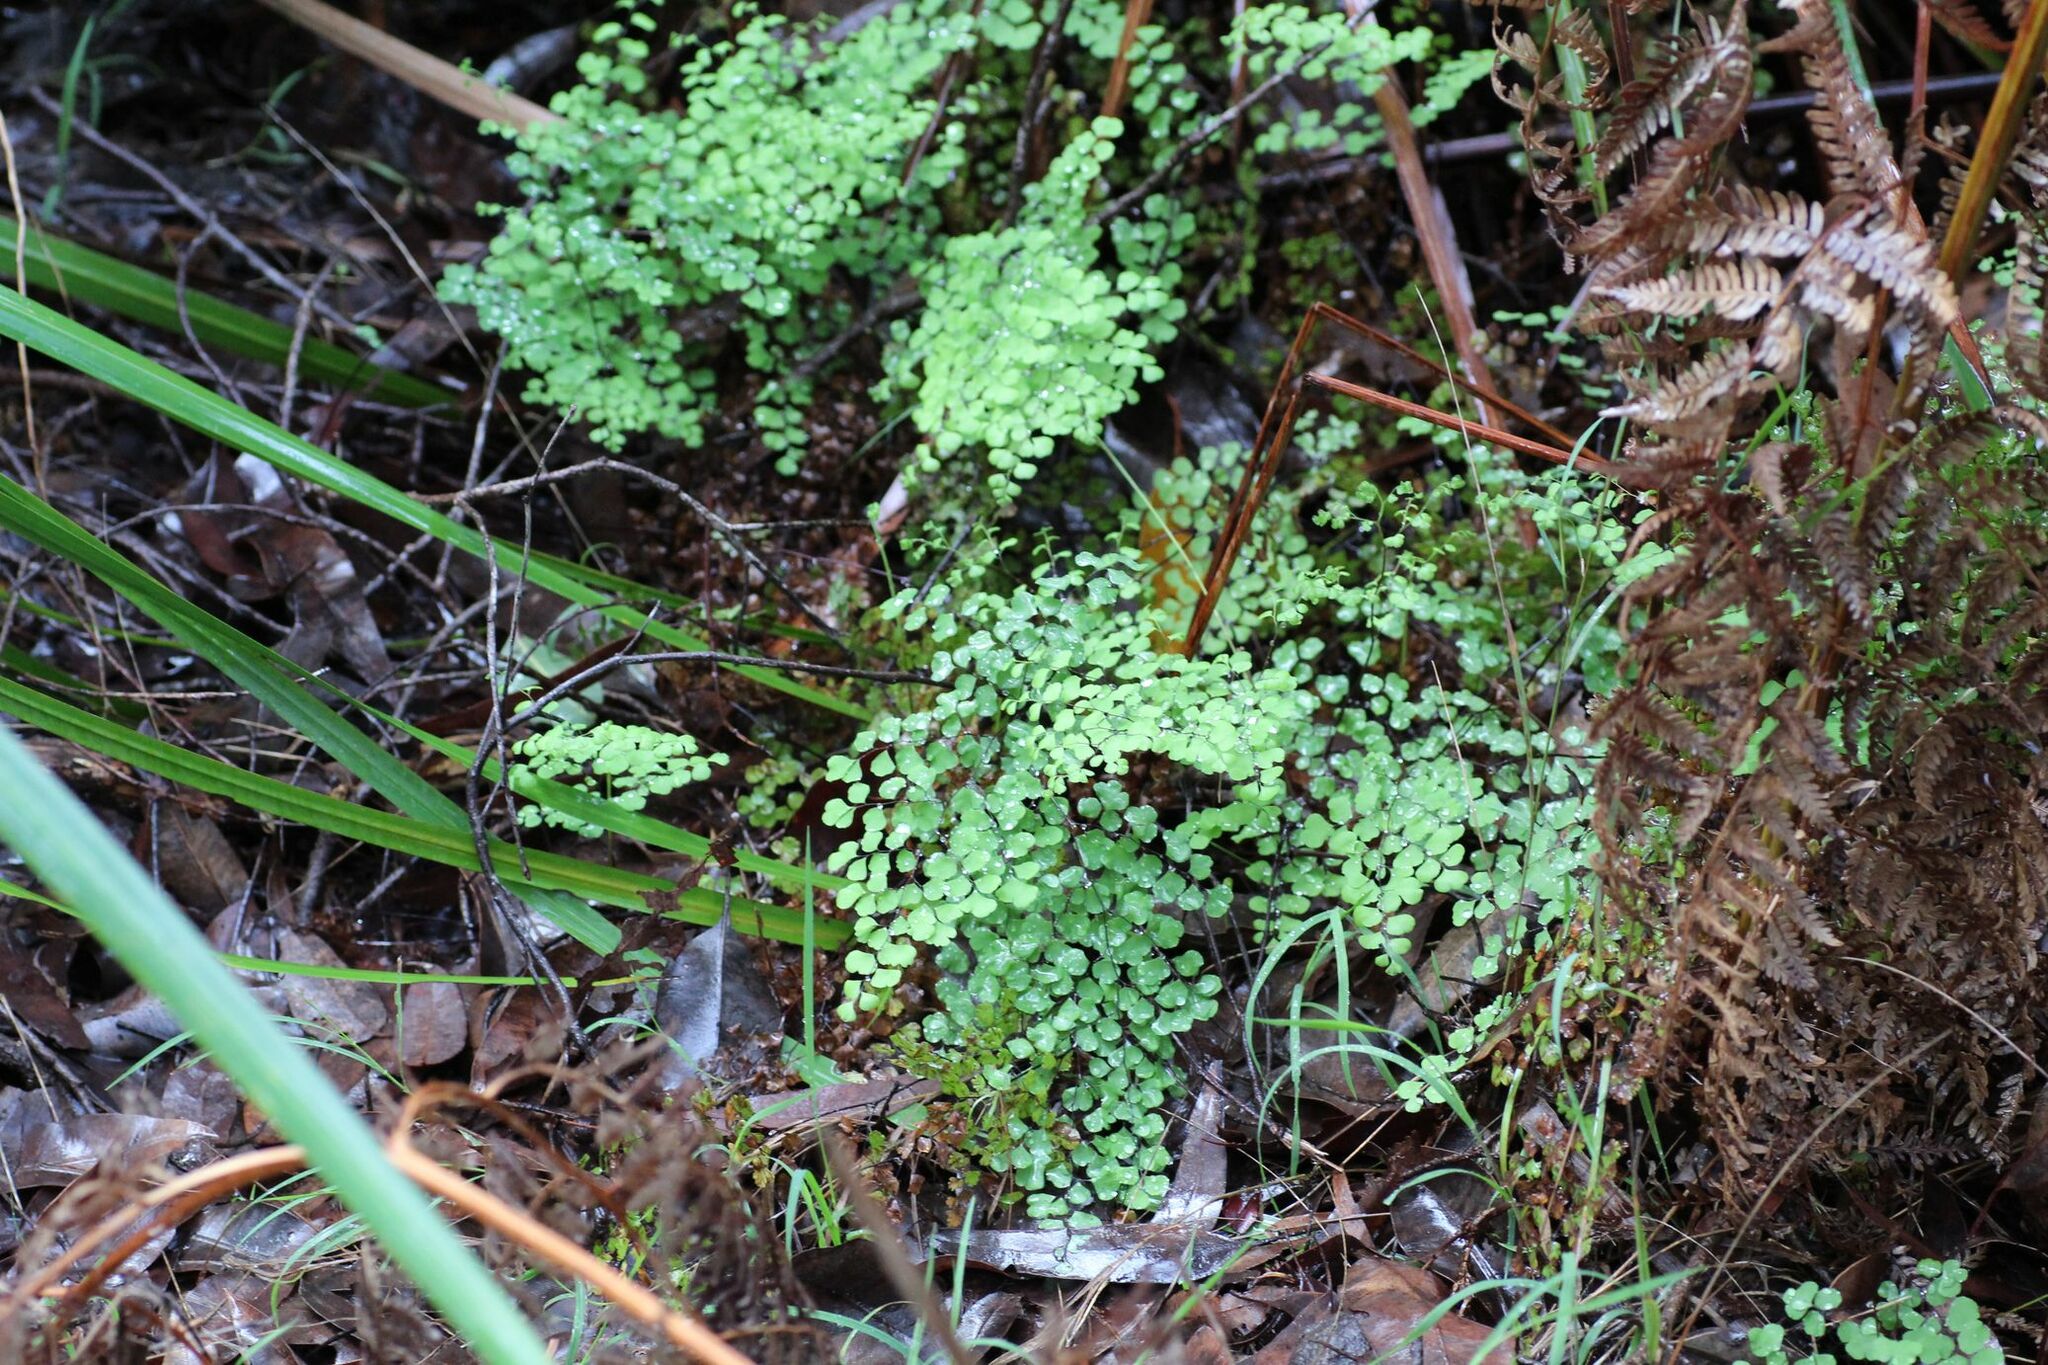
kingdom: Plantae
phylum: Tracheophyta
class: Polypodiopsida
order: Polypodiales
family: Pteridaceae
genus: Adiantum
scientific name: Adiantum aethiopicum
